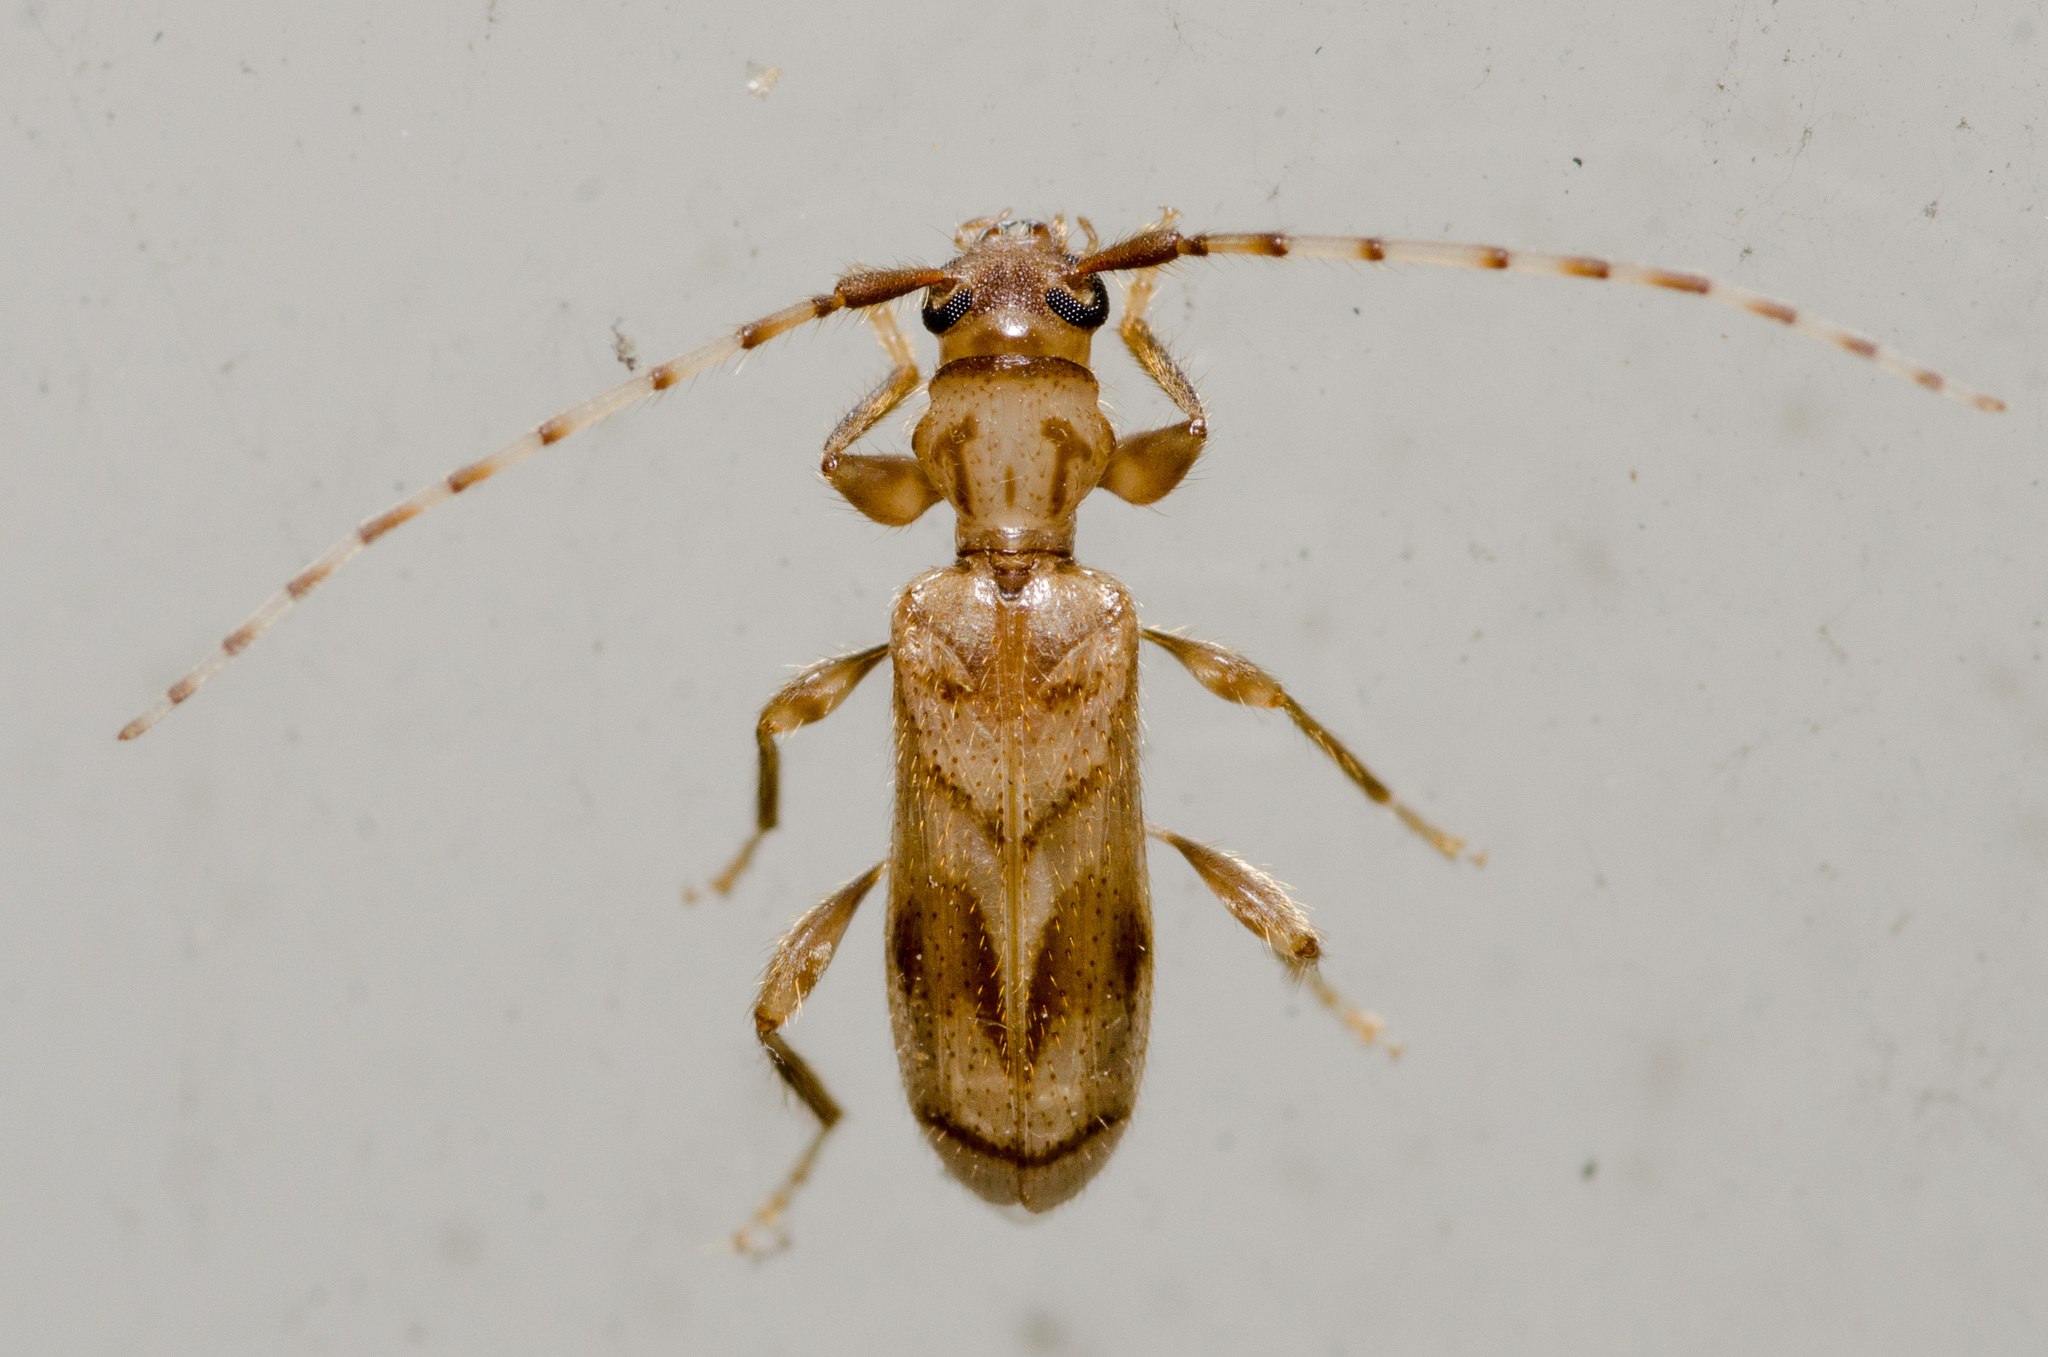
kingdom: Animalia
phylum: Arthropoda
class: Insecta
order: Coleoptera
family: Cerambycidae
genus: Obrium
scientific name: Obrium maculatum
